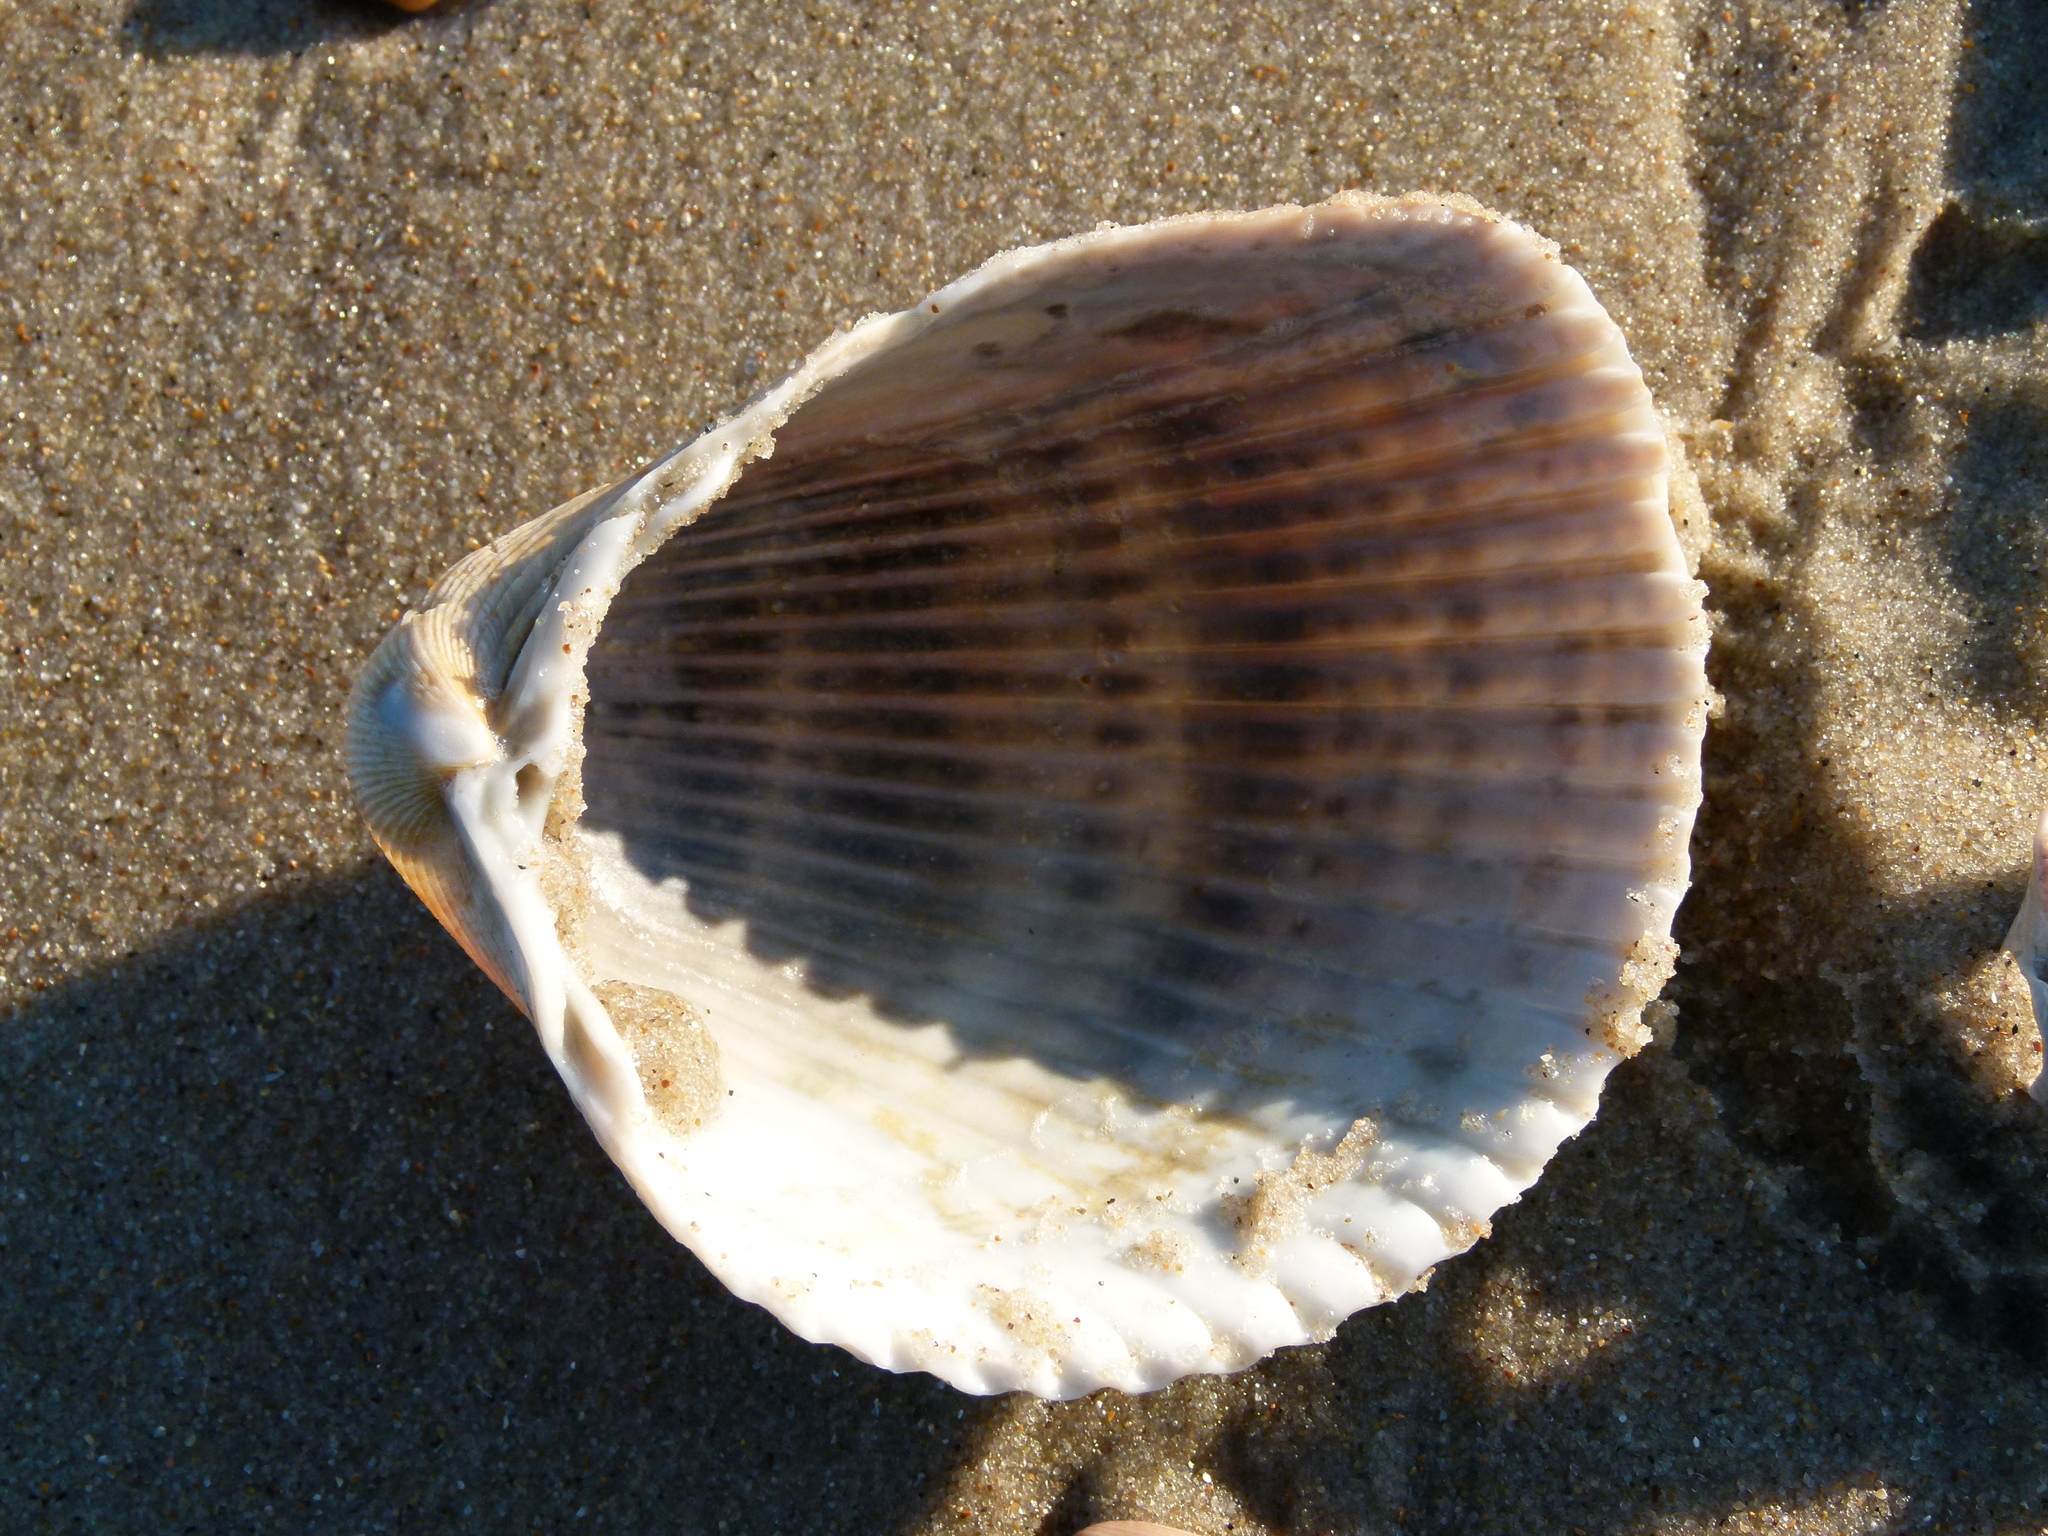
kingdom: Animalia
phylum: Mollusca
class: Bivalvia
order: Cardiida
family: Cardiidae
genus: Dinocardium
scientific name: Dinocardium robustum
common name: Atlantic giant cockle
